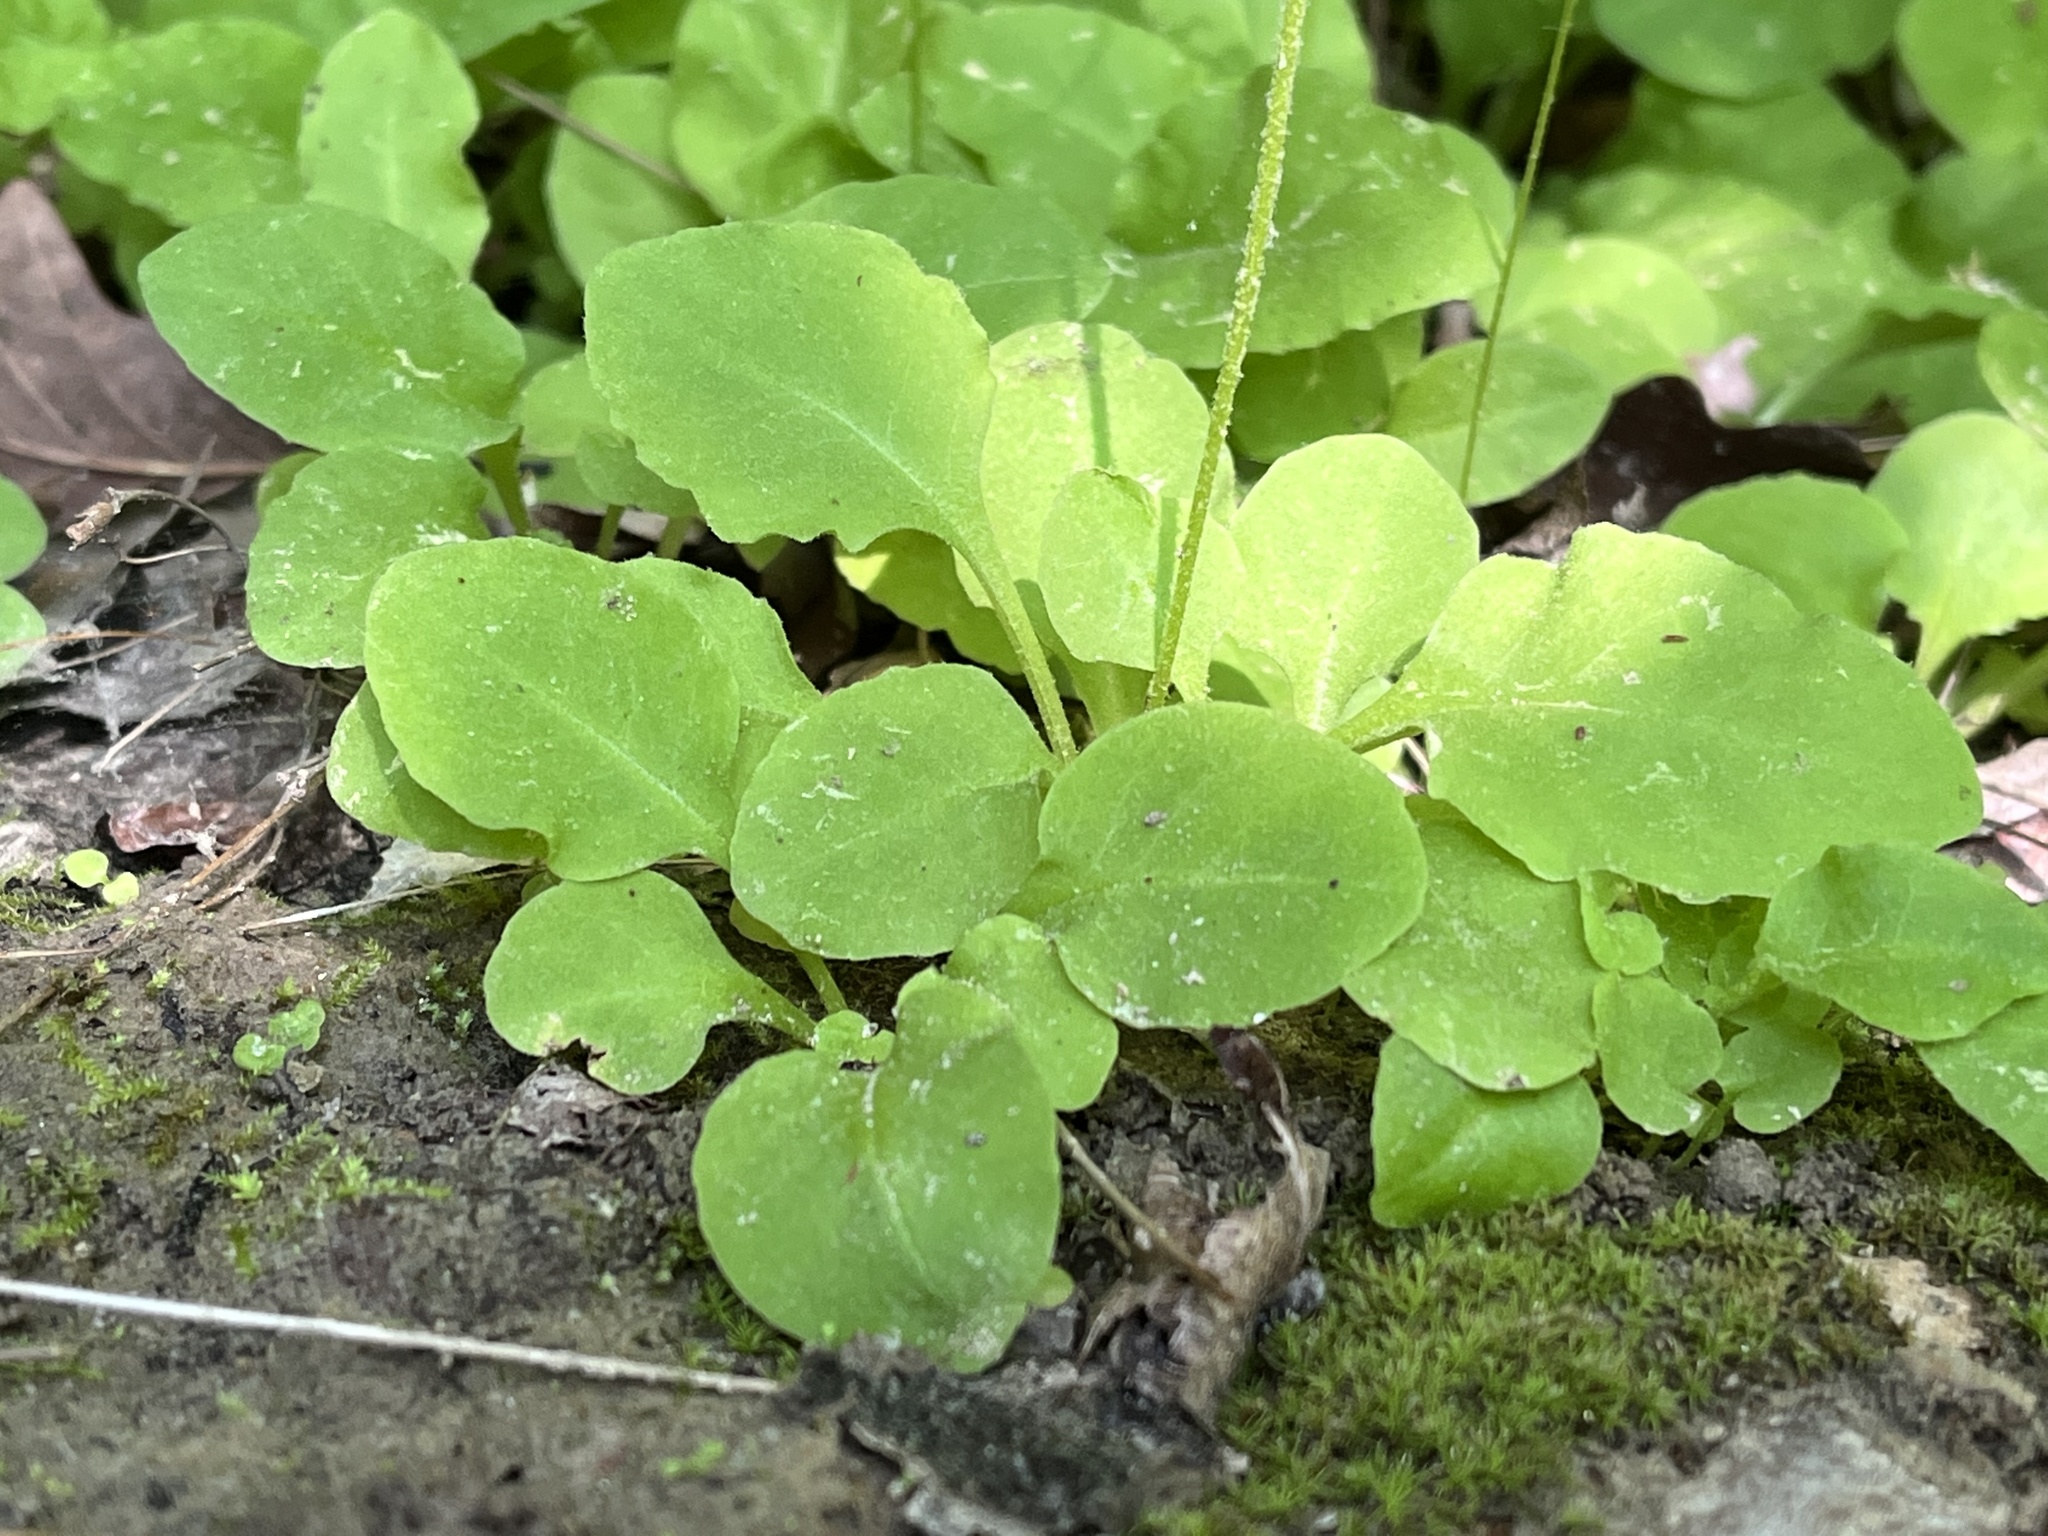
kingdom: Plantae
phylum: Tracheophyta
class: Magnoliopsida
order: Ericales
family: Primulaceae
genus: Dodecatheon
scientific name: Dodecatheon frenchii
